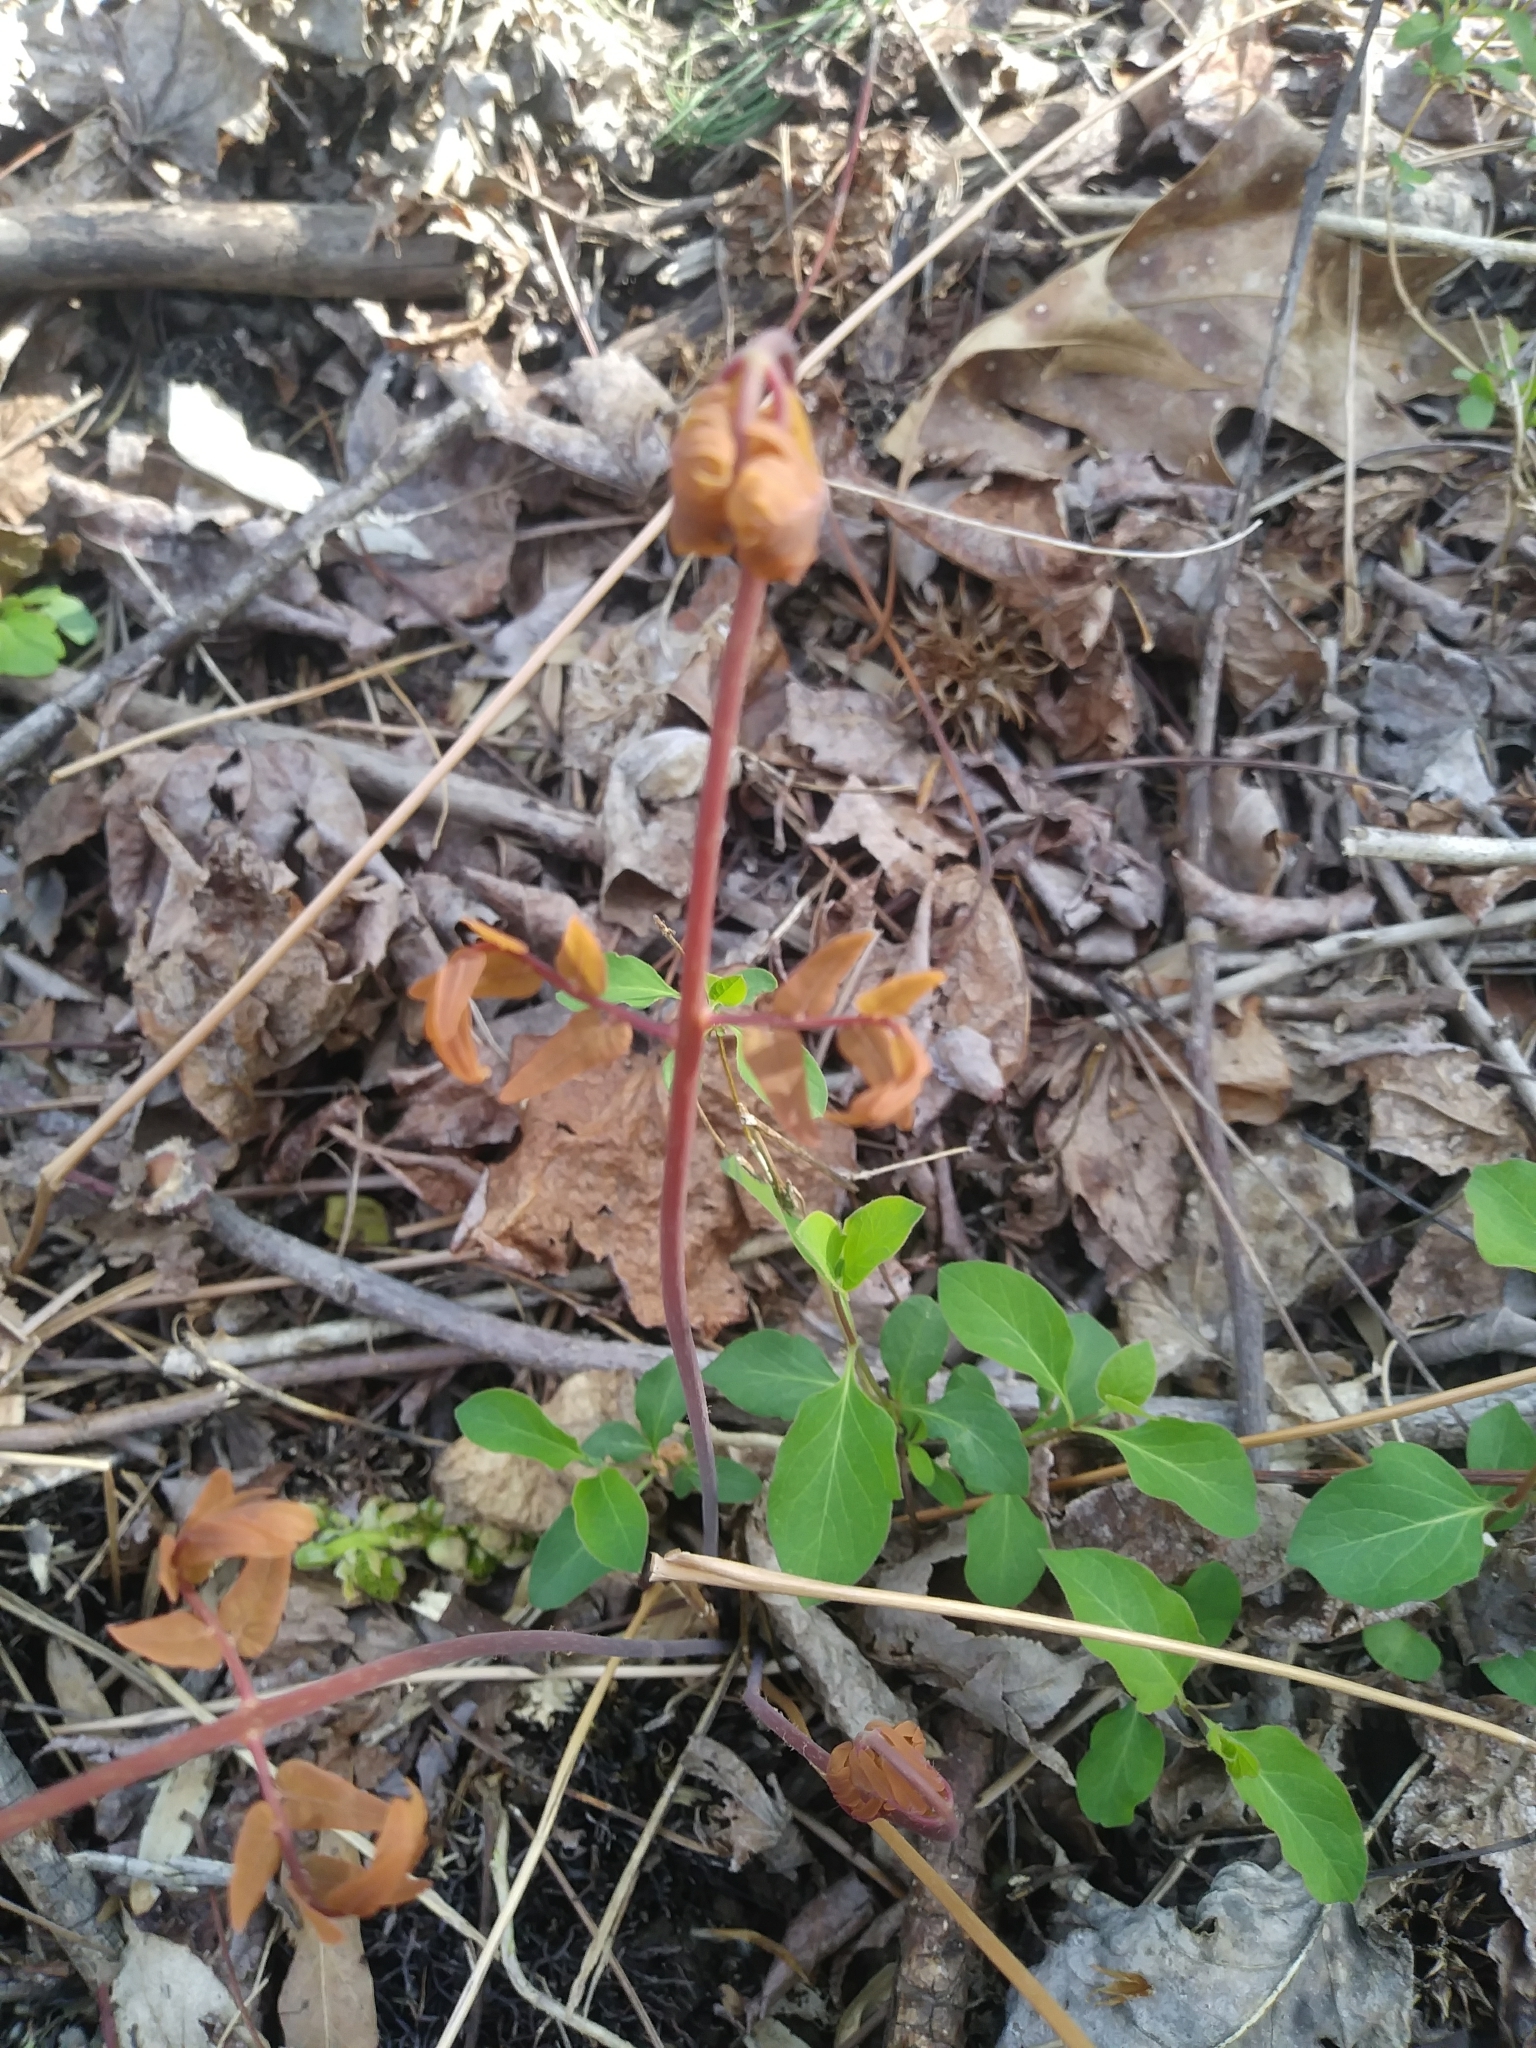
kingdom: Plantae
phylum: Tracheophyta
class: Polypodiopsida
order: Osmundales
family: Osmundaceae
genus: Osmunda
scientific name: Osmunda spectabilis
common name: American royal fern
